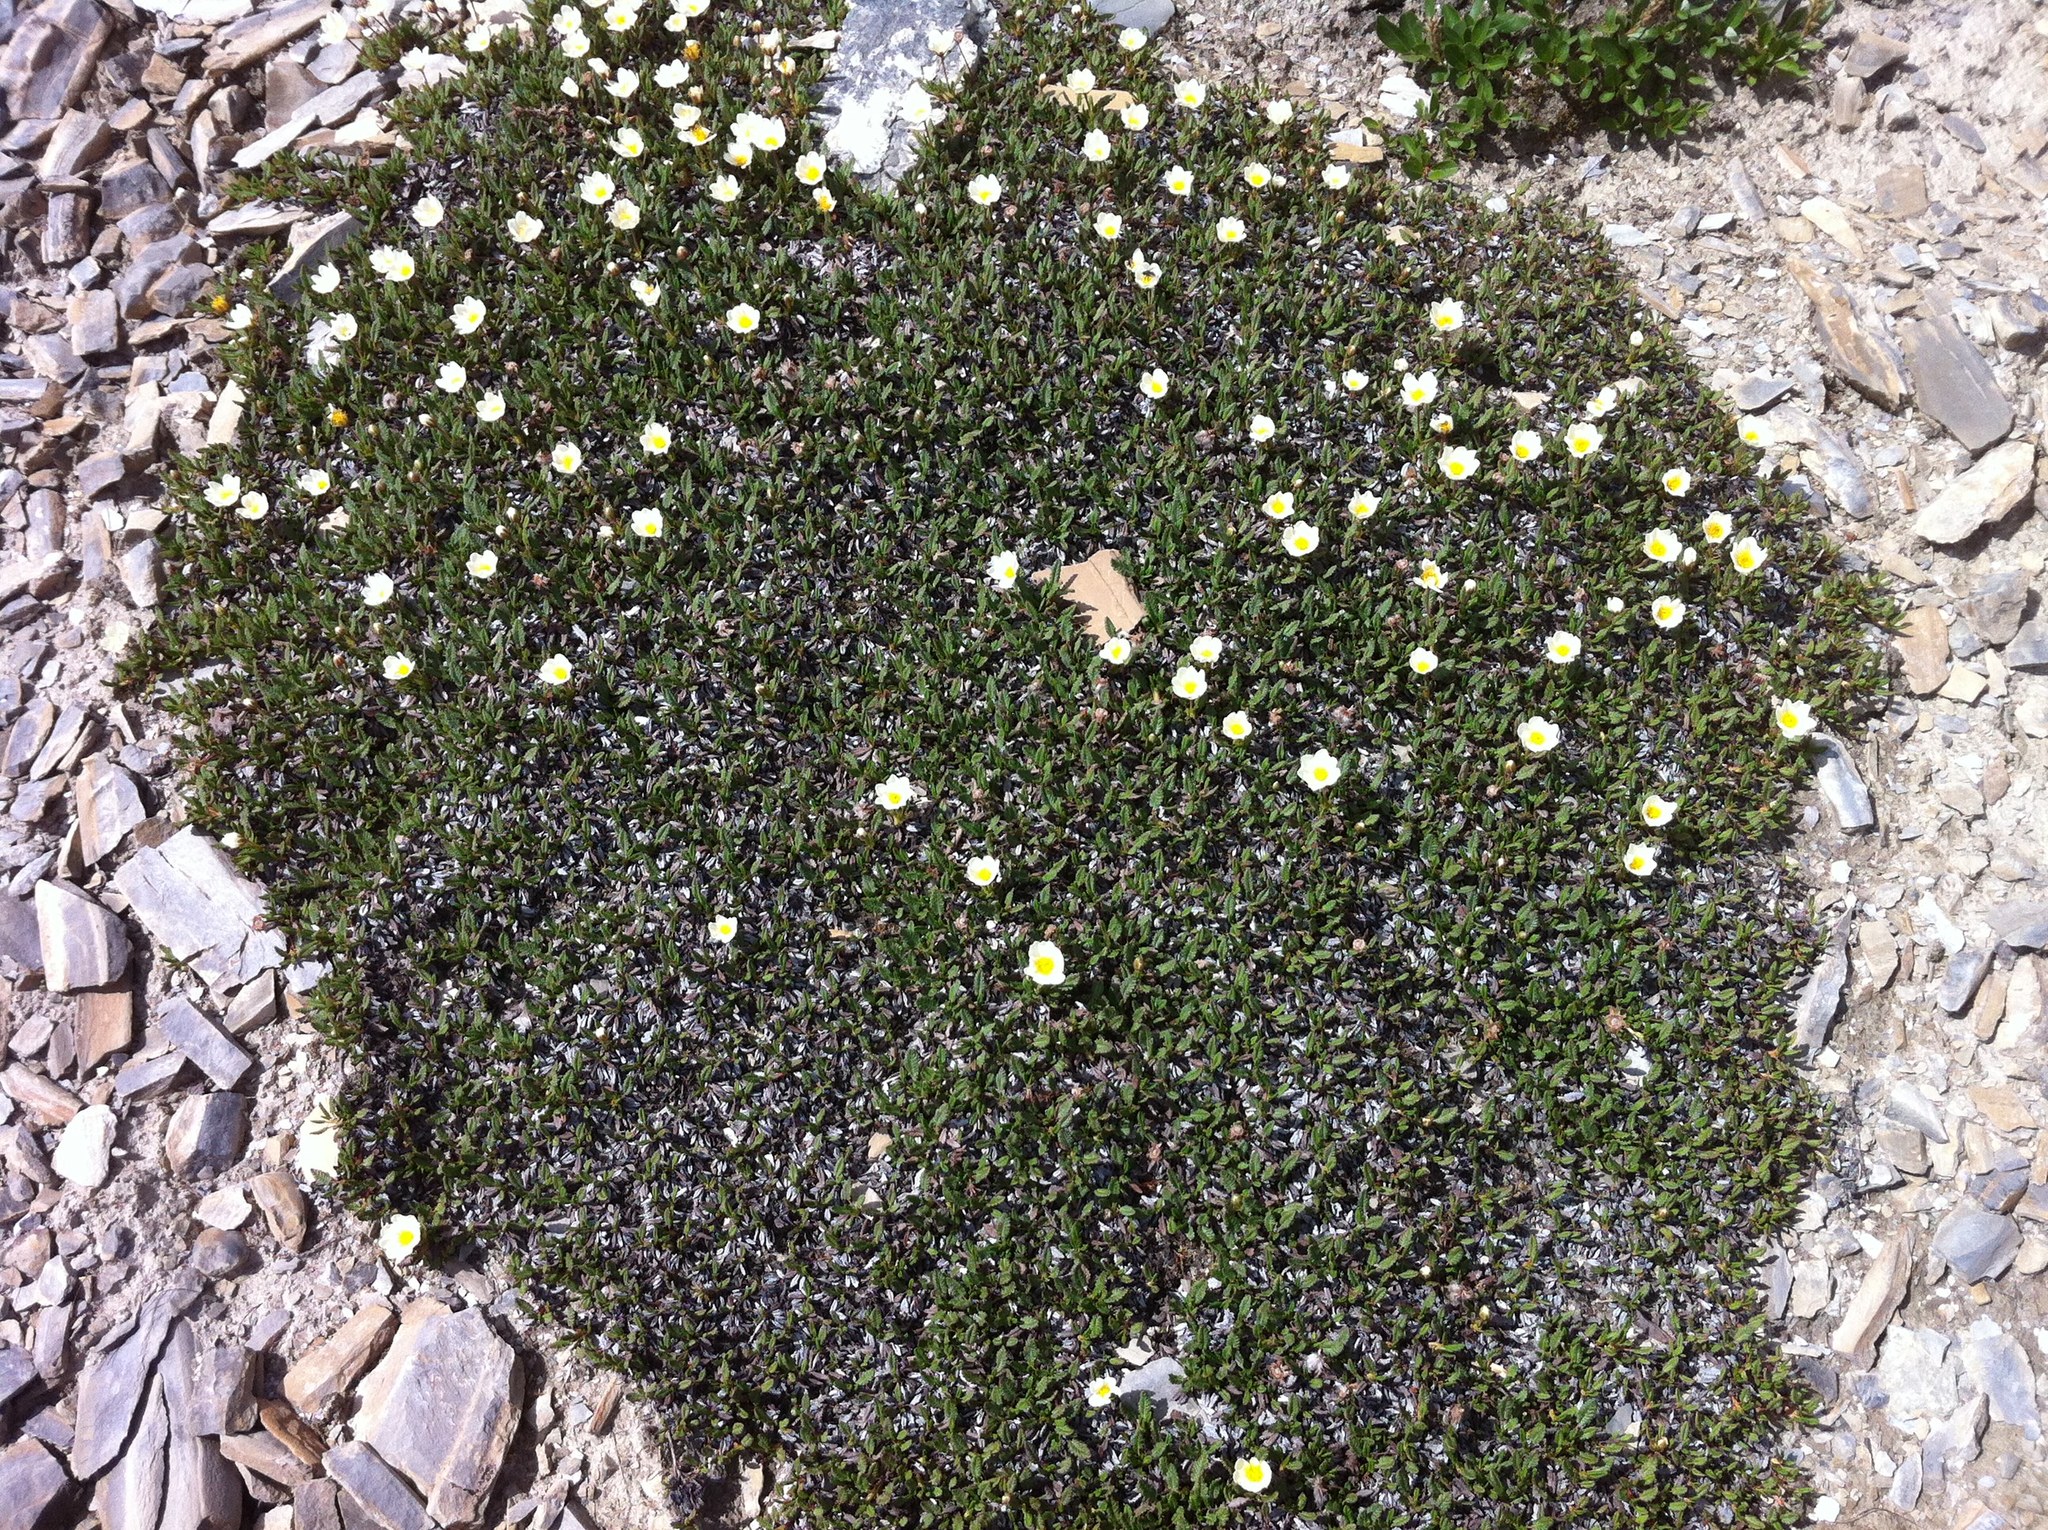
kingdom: Plantae
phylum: Tracheophyta
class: Magnoliopsida
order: Rosales
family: Rosaceae
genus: Dryas
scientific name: Dryas octopetala
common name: Eight-petal mountain-avens
